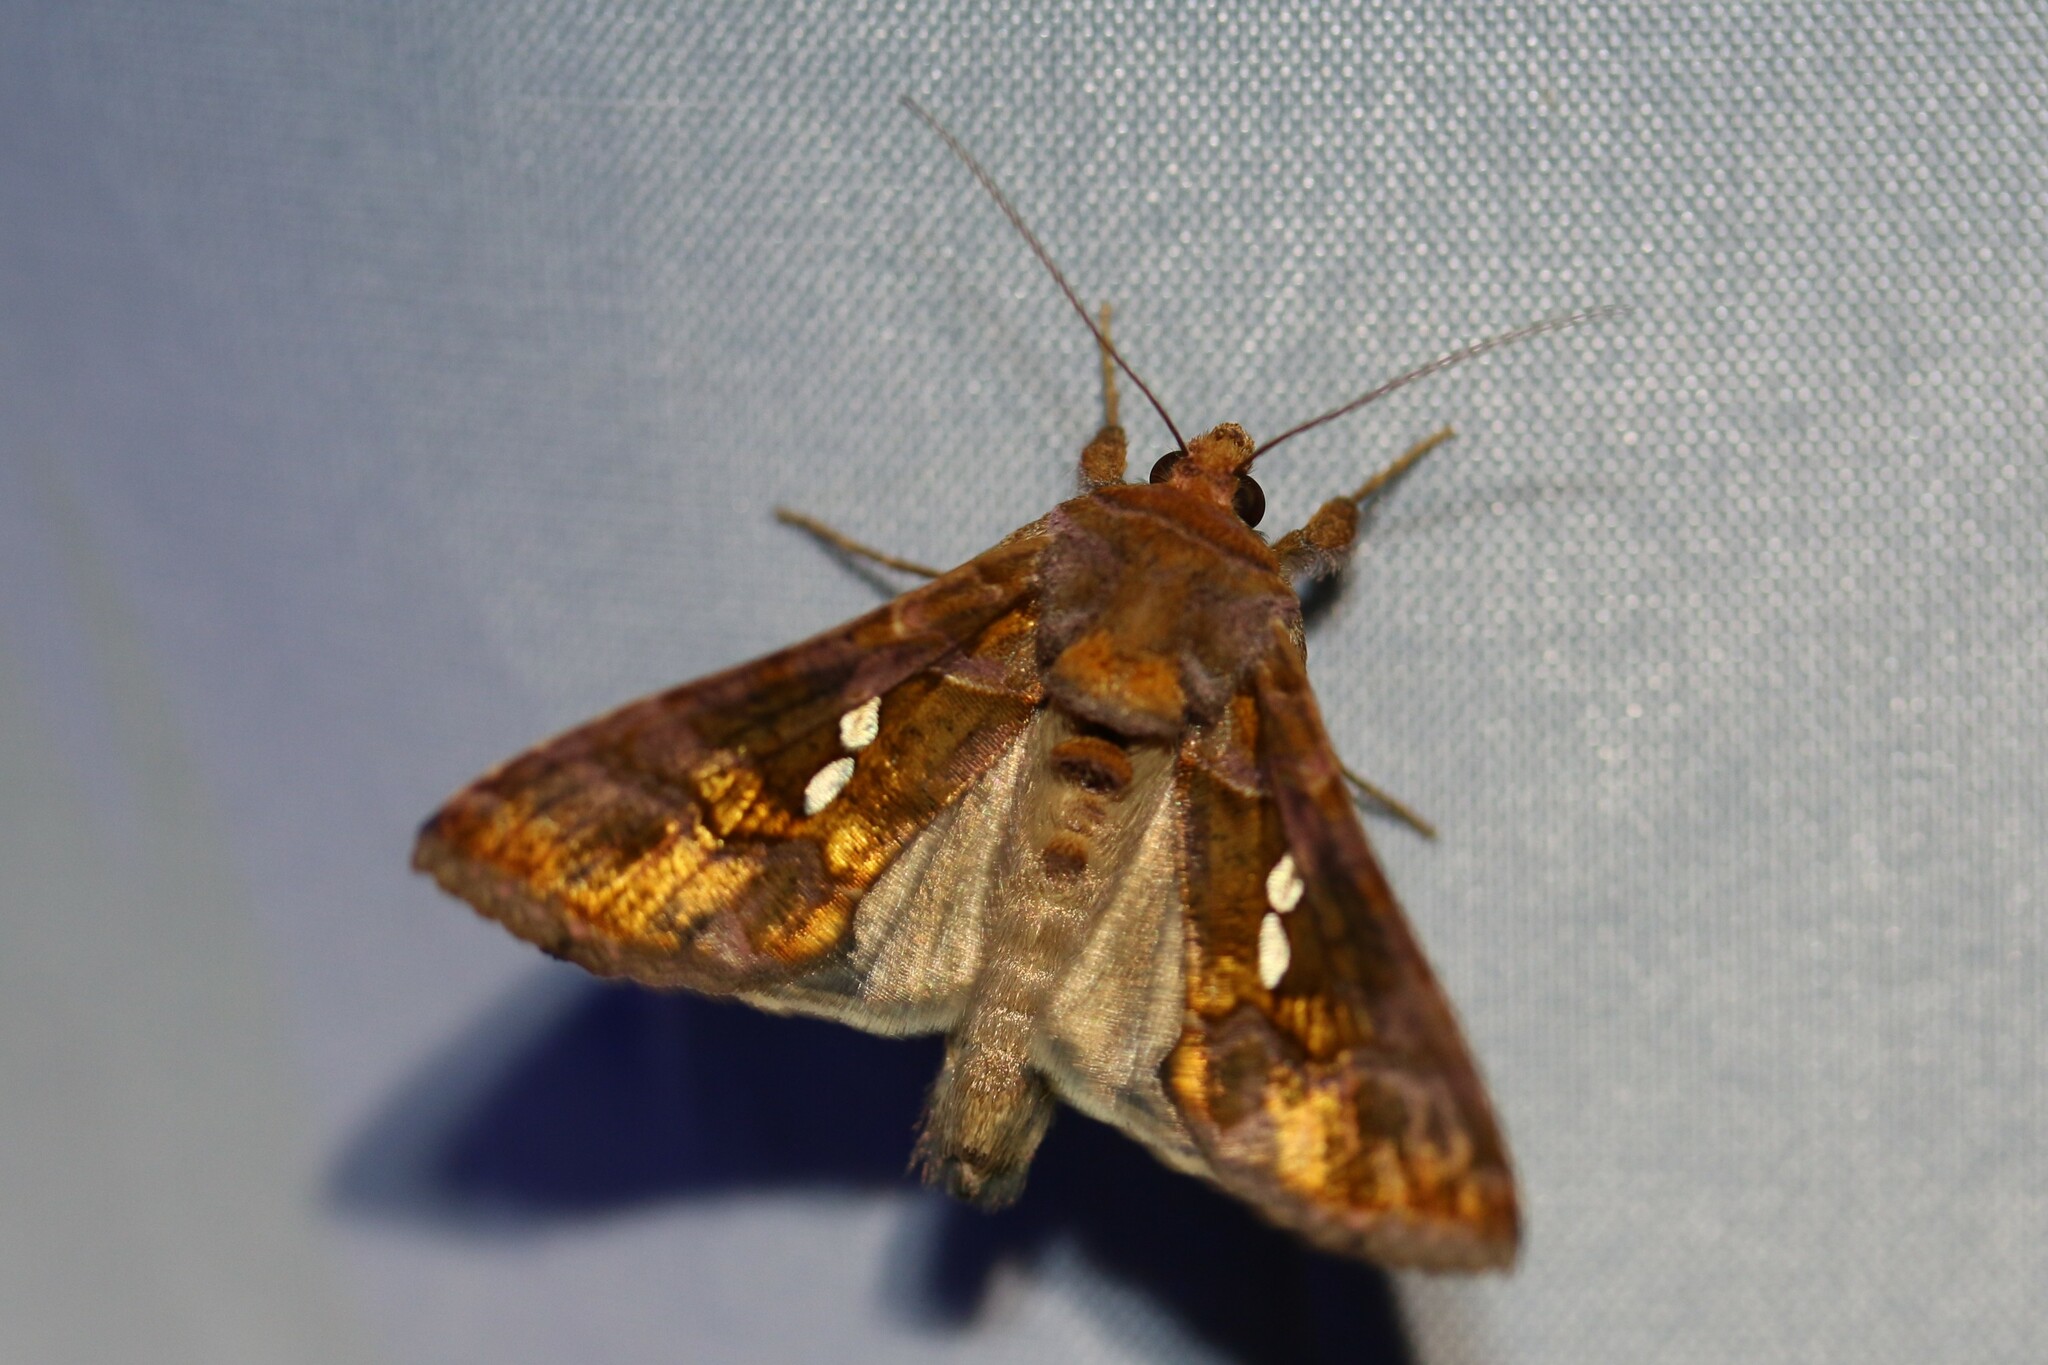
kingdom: Animalia
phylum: Arthropoda
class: Insecta
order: Lepidoptera
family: Noctuidae
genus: Chrysodeixis
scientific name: Chrysodeixis chalcites
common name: Golden twin-spot
